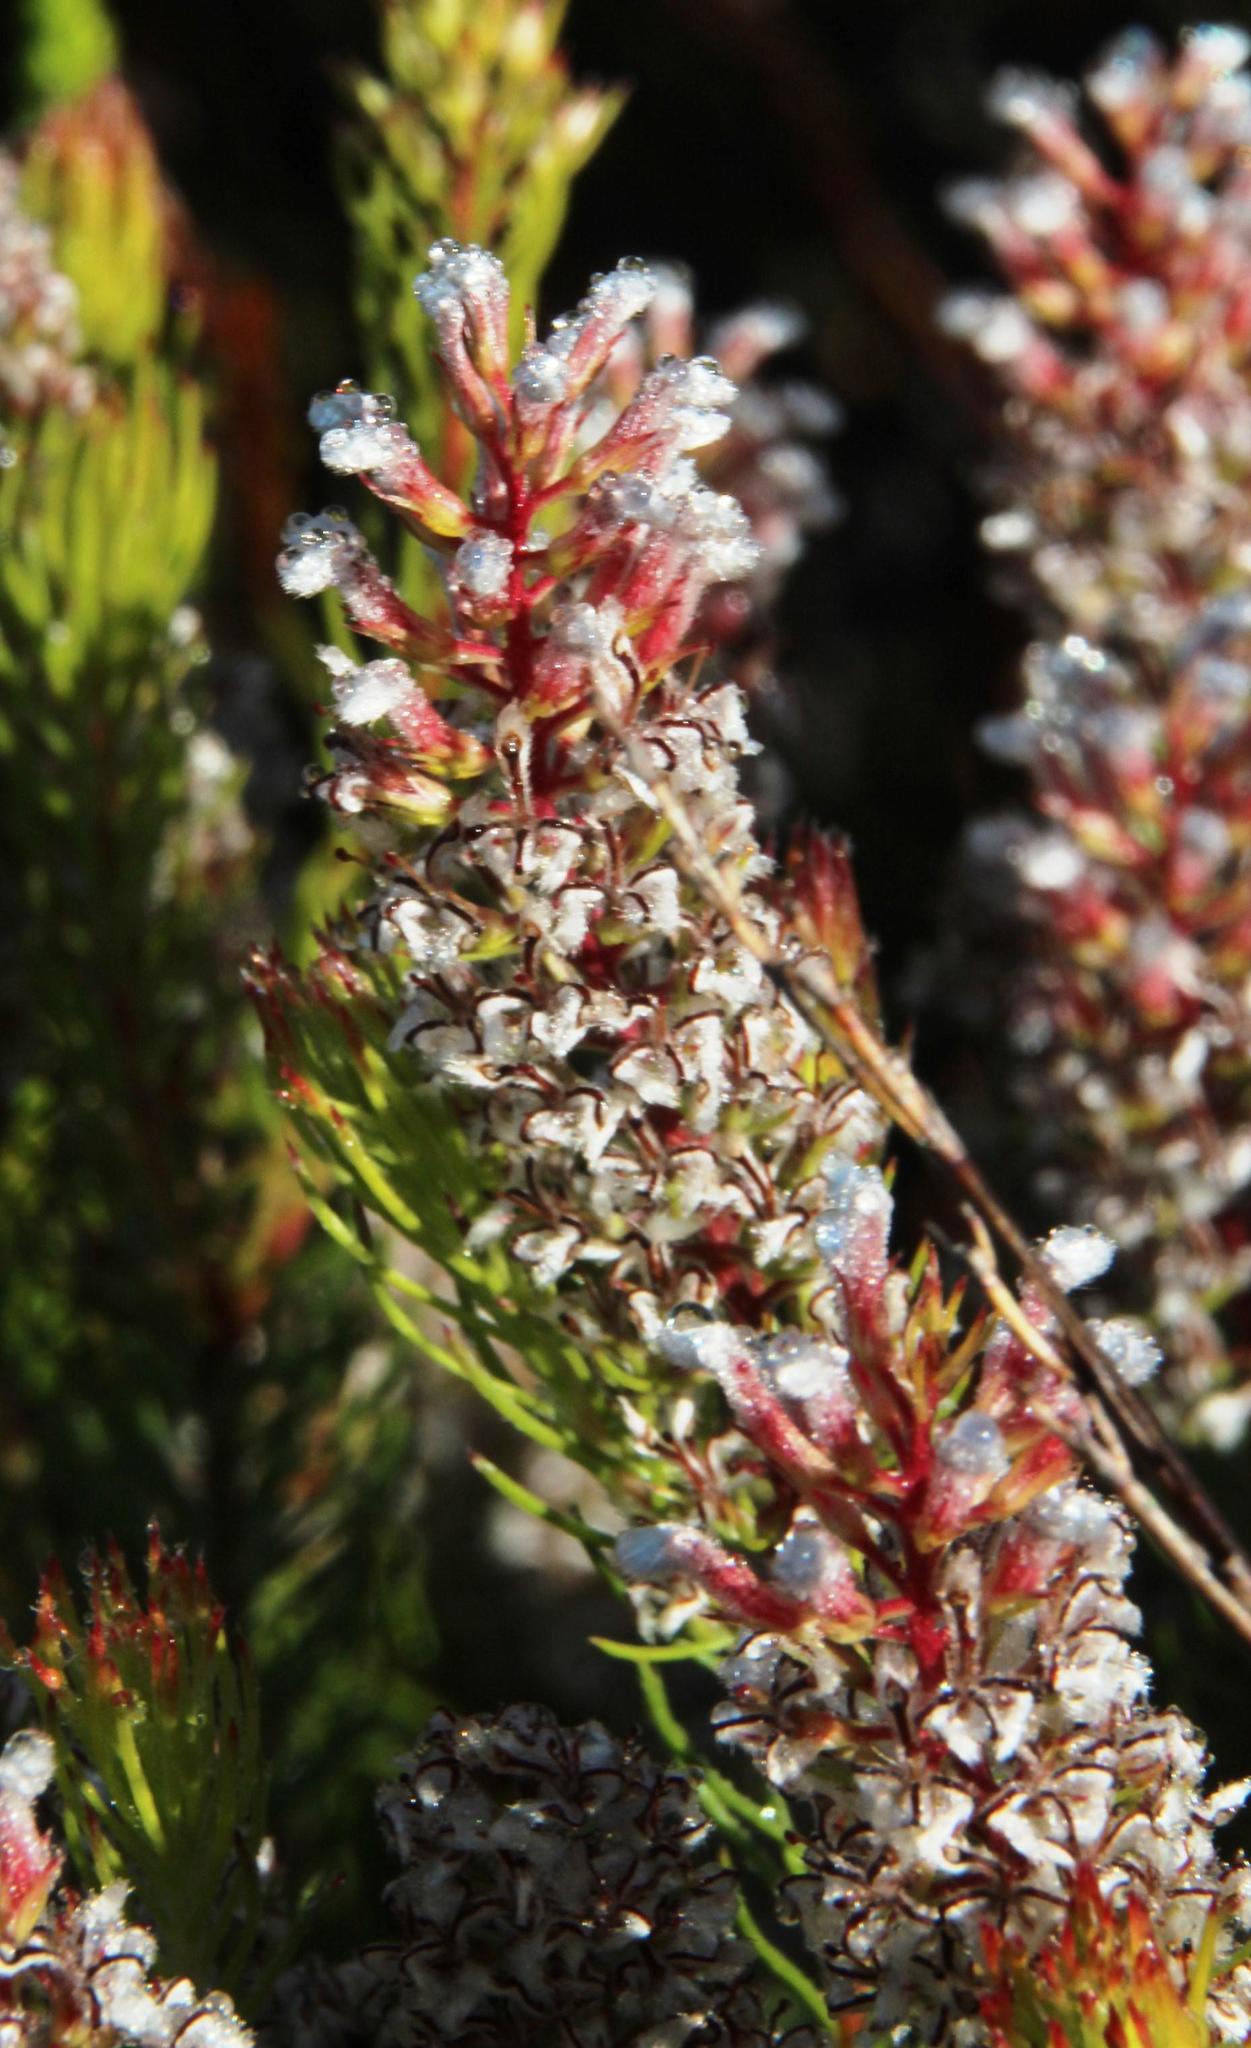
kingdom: Plantae
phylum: Tracheophyta
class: Magnoliopsida
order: Proteales
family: Proteaceae
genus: Spatalla
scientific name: Spatalla parilis
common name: Spike spoon
